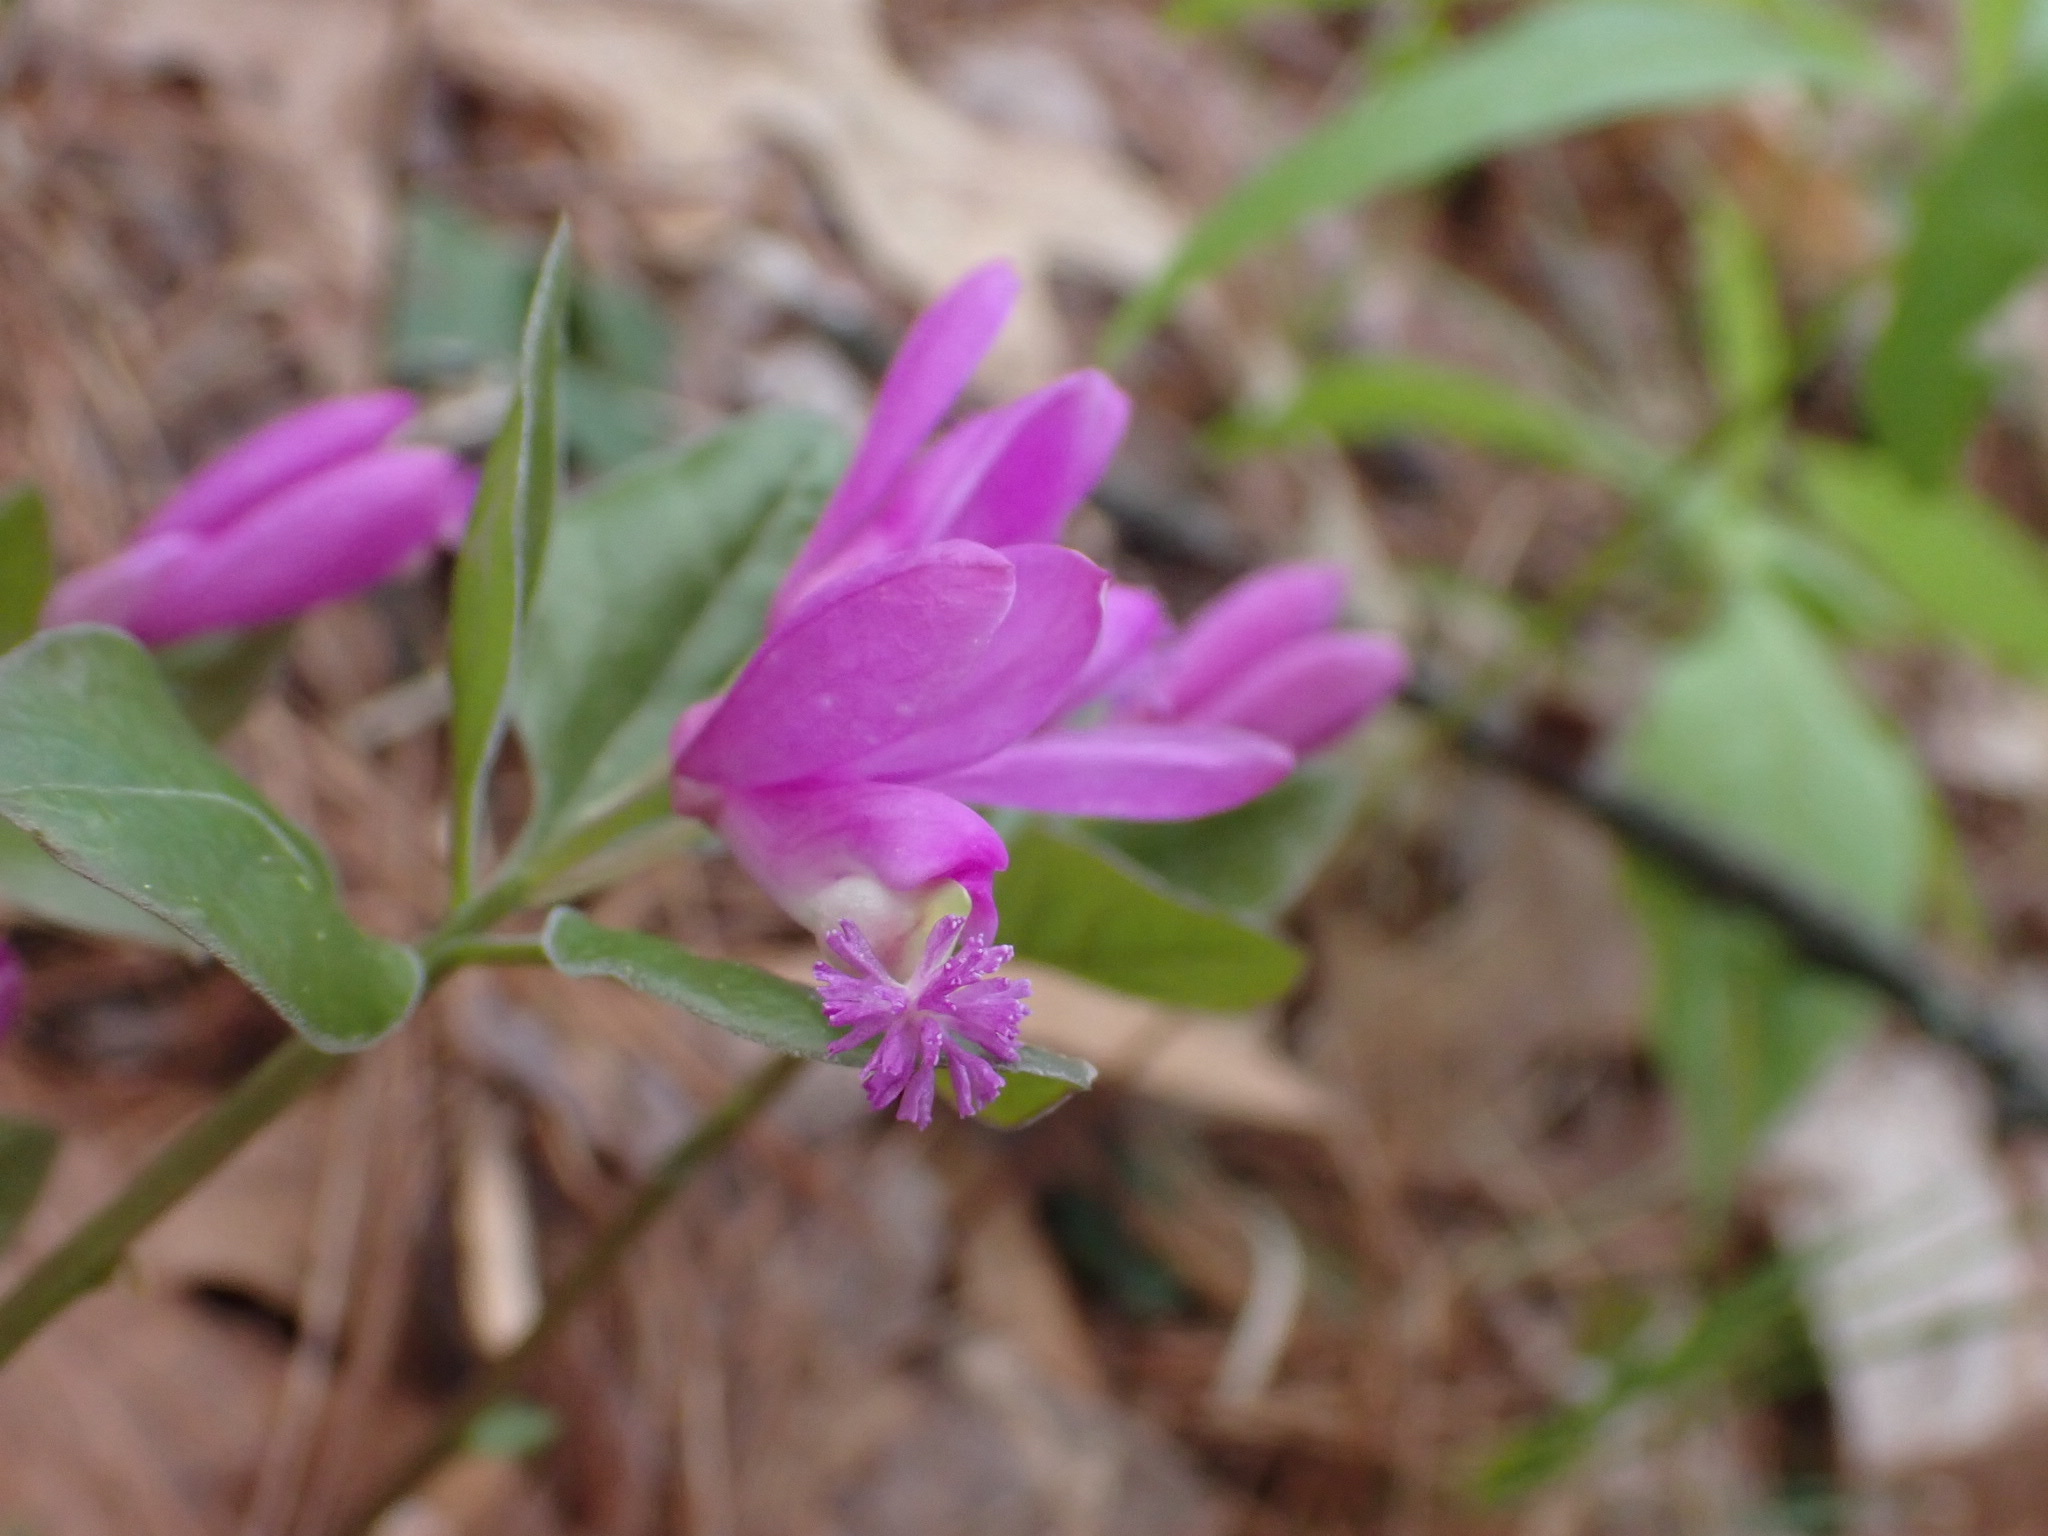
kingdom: Plantae
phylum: Tracheophyta
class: Magnoliopsida
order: Fabales
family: Polygalaceae
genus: Polygaloides
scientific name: Polygaloides paucifolia
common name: Bird-on-the-wing
